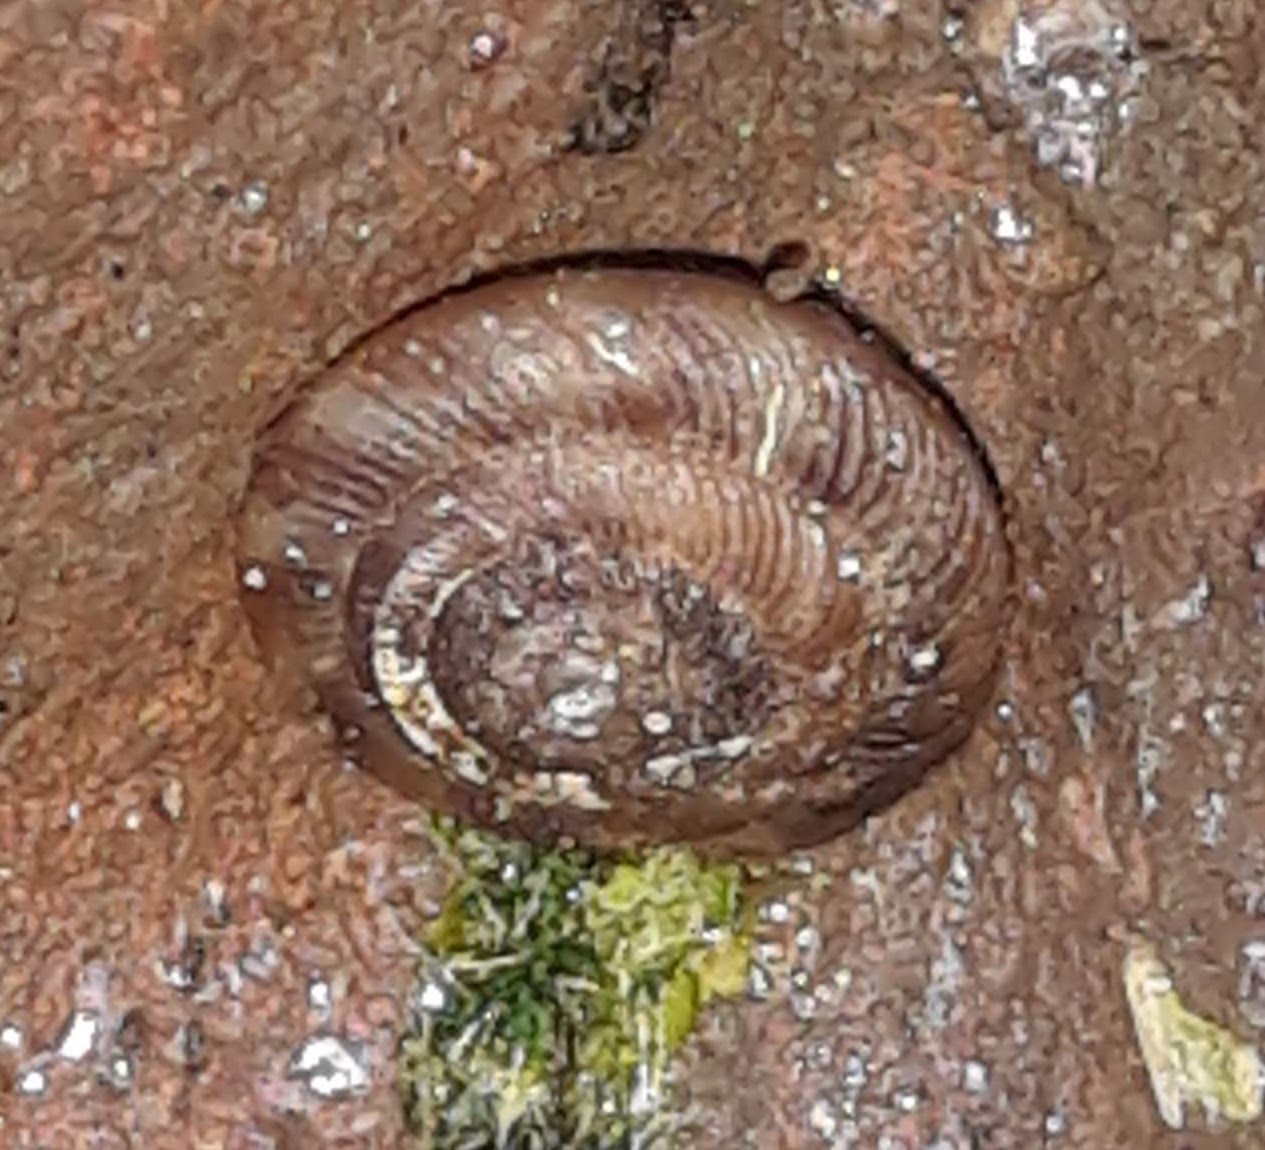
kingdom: Animalia
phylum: Mollusca
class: Gastropoda
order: Stylommatophora
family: Discidae
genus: Discus
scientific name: Discus rotundatus
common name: Rounded snail
